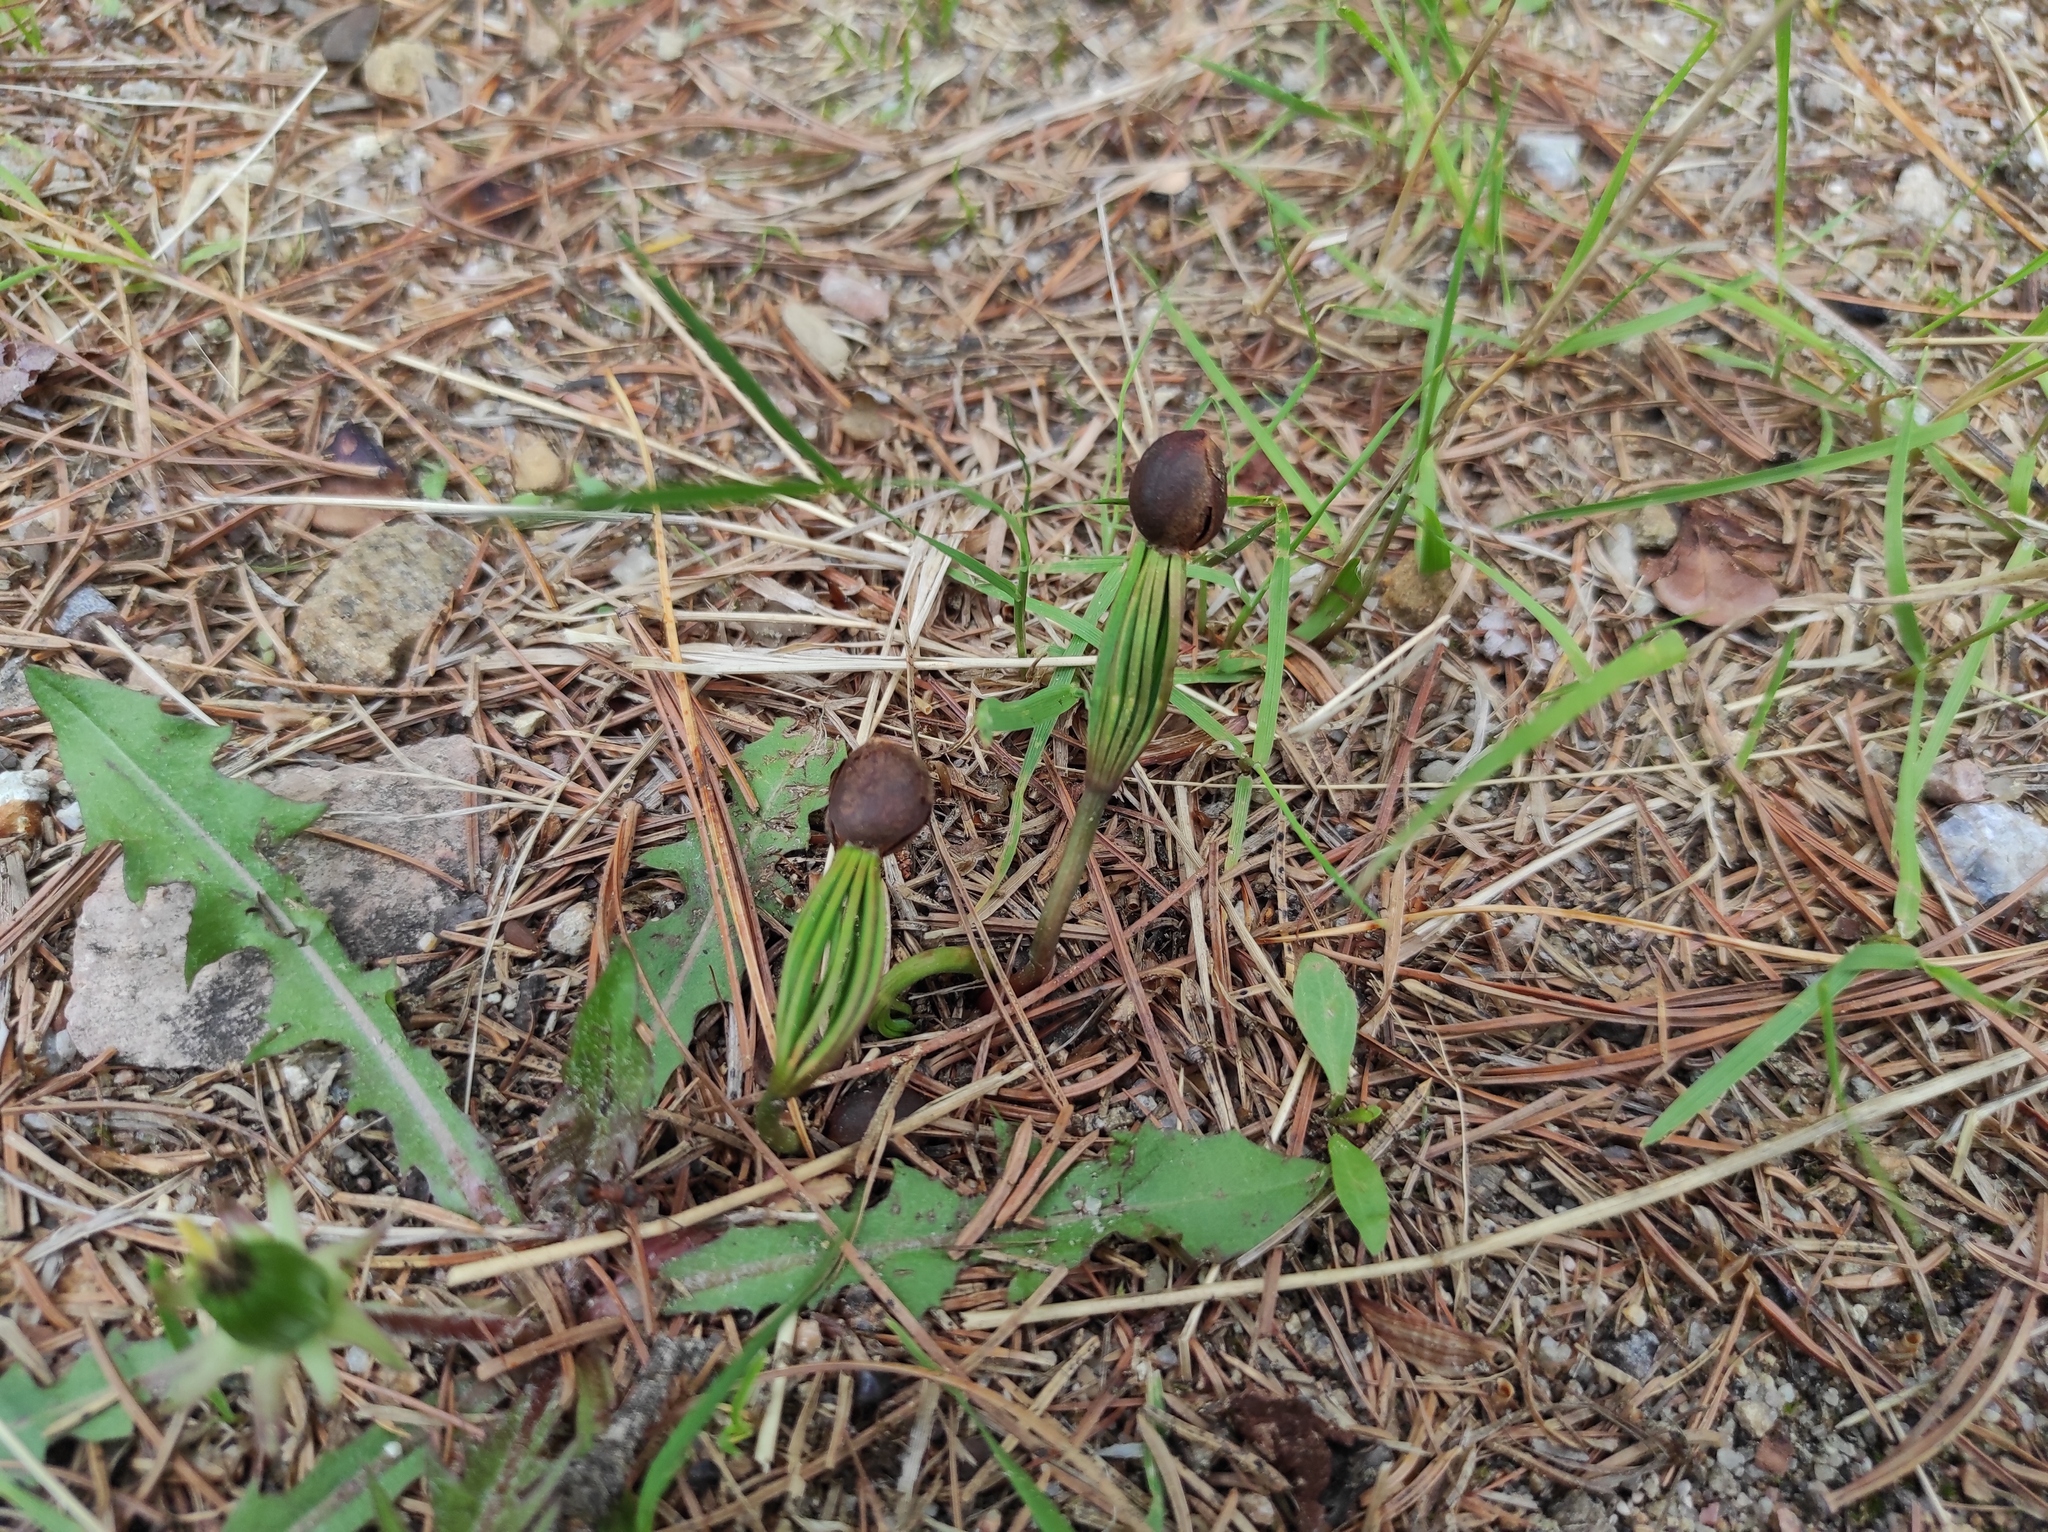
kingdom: Plantae
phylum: Tracheophyta
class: Pinopsida
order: Pinales
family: Pinaceae
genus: Pinus
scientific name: Pinus sibirica
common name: Siberian pine
